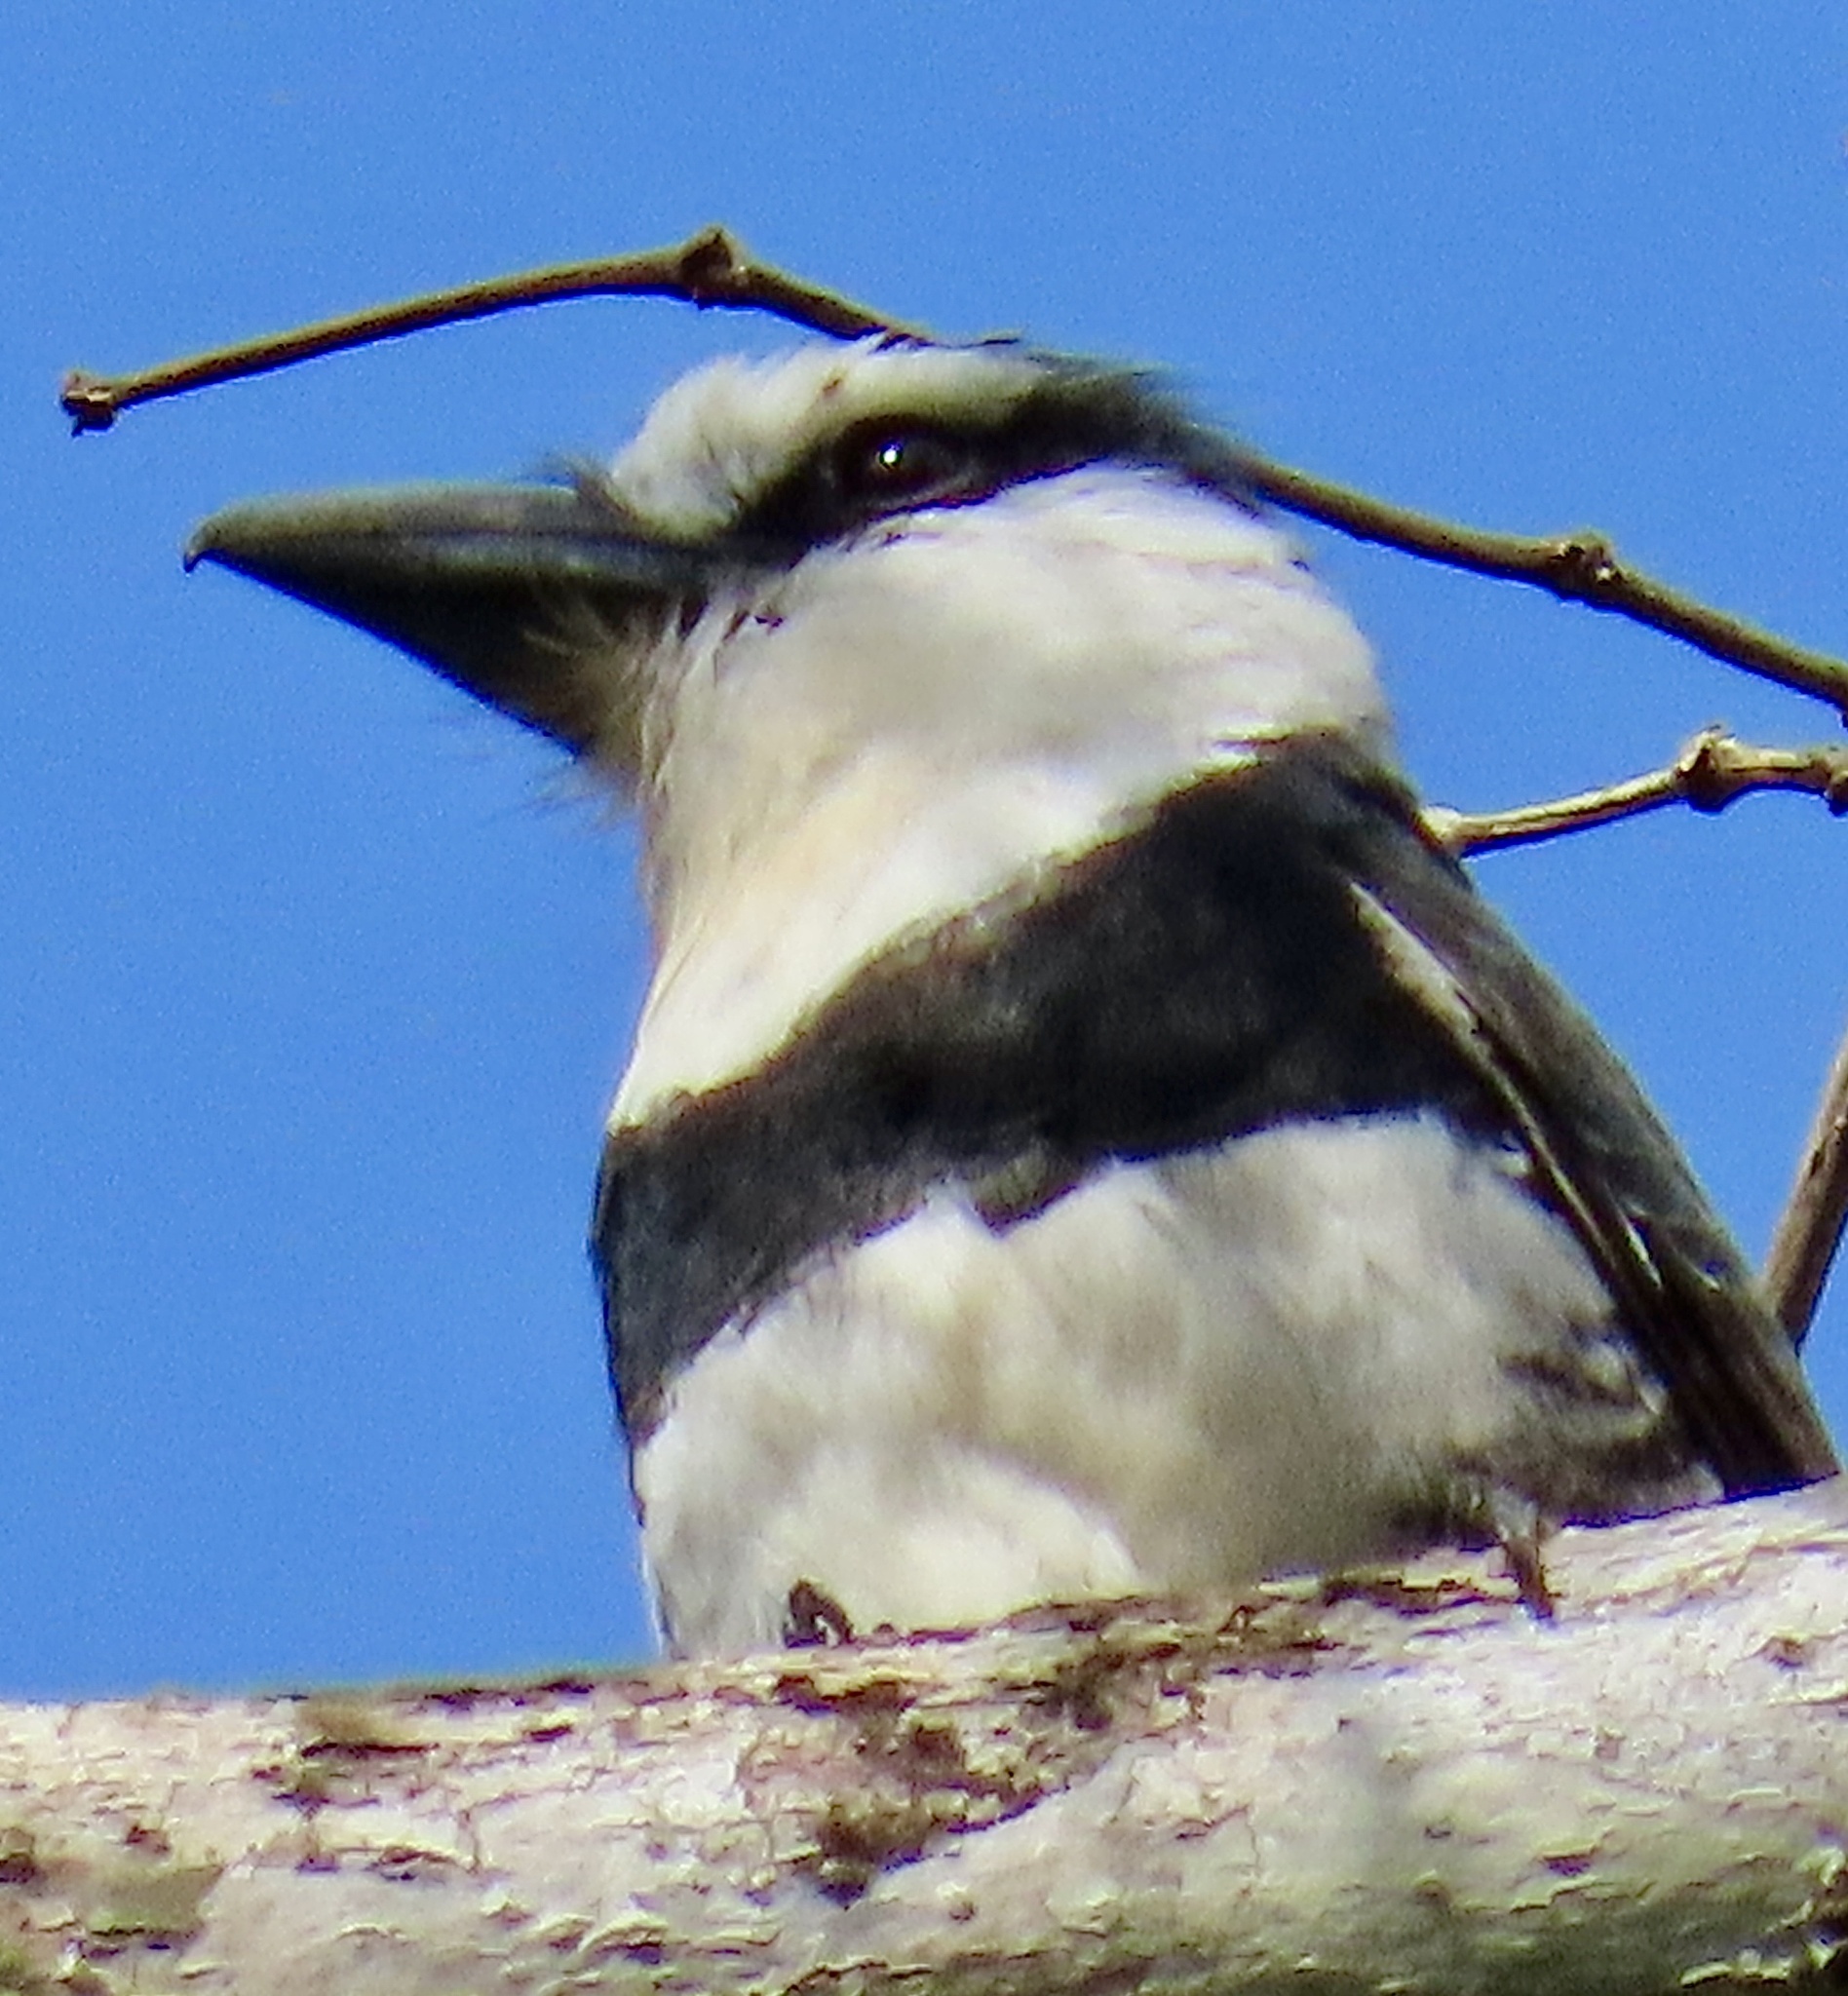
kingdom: Animalia
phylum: Chordata
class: Aves
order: Piciformes
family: Bucconidae
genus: Notharchus
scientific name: Notharchus hyperrhynchus
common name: White-necked puffbird
